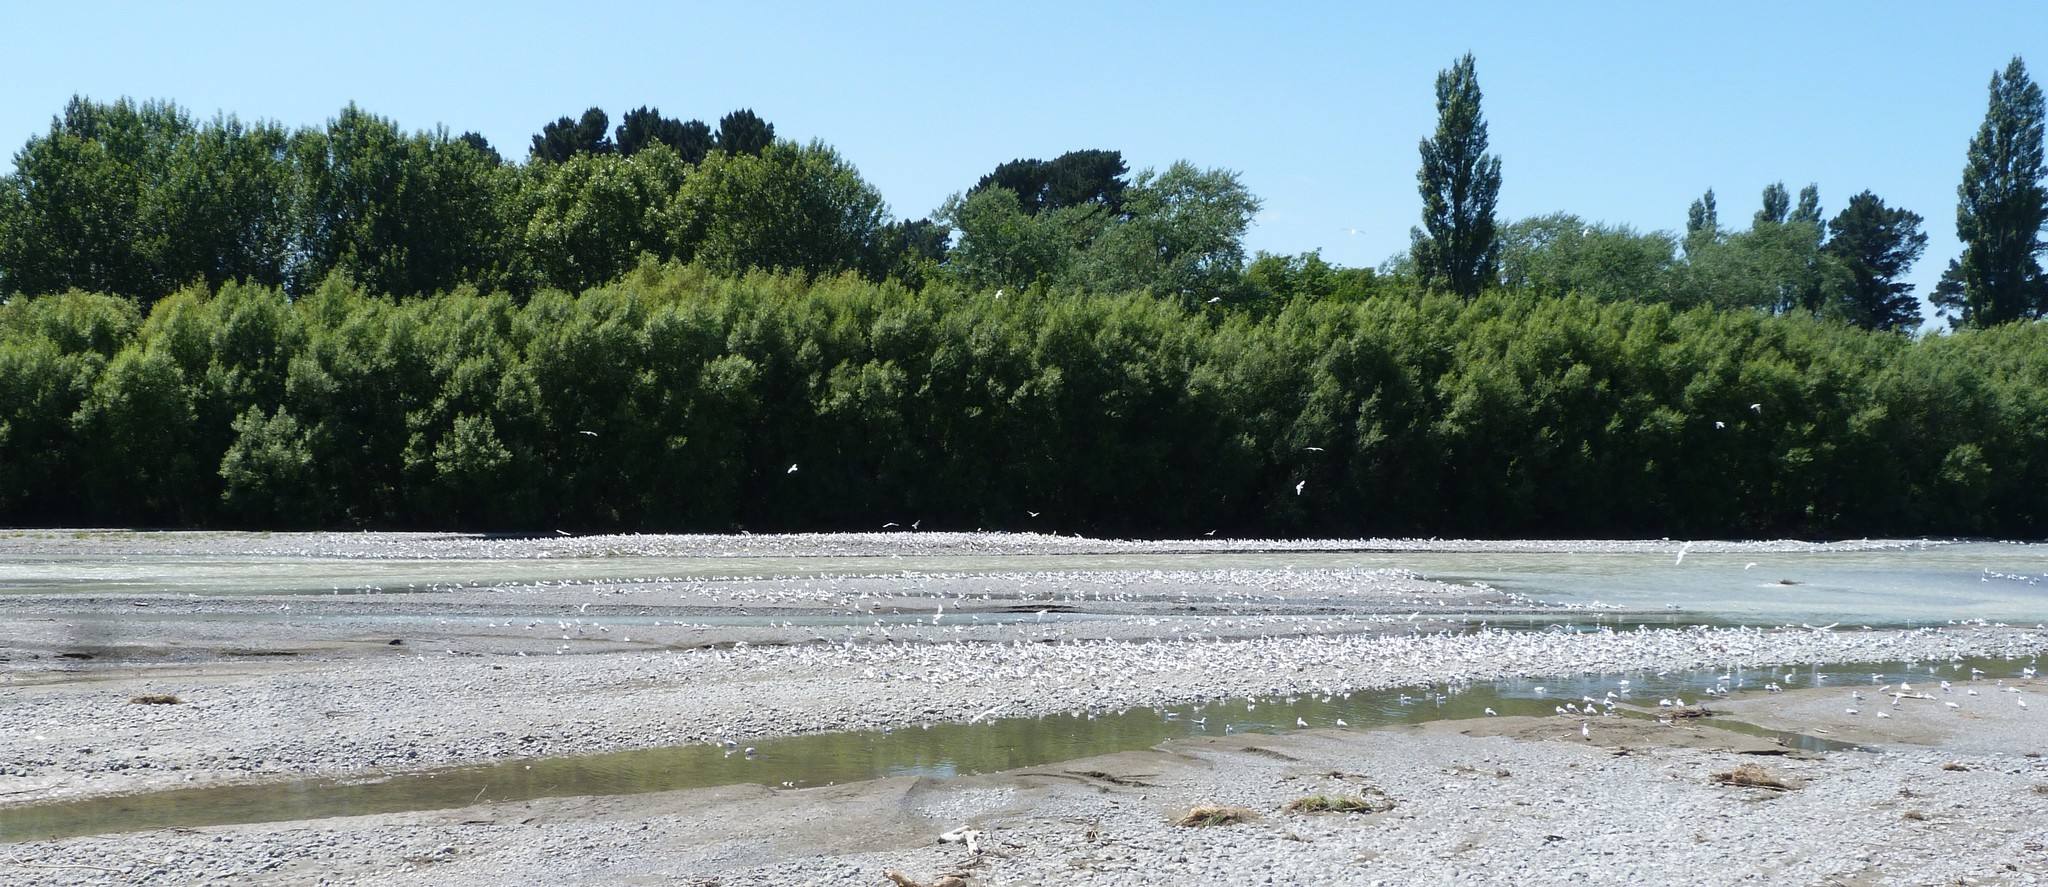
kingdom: Animalia
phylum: Chordata
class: Aves
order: Charadriiformes
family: Laridae
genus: Chroicocephalus
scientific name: Chroicocephalus bulleri
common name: Black-billed gull
